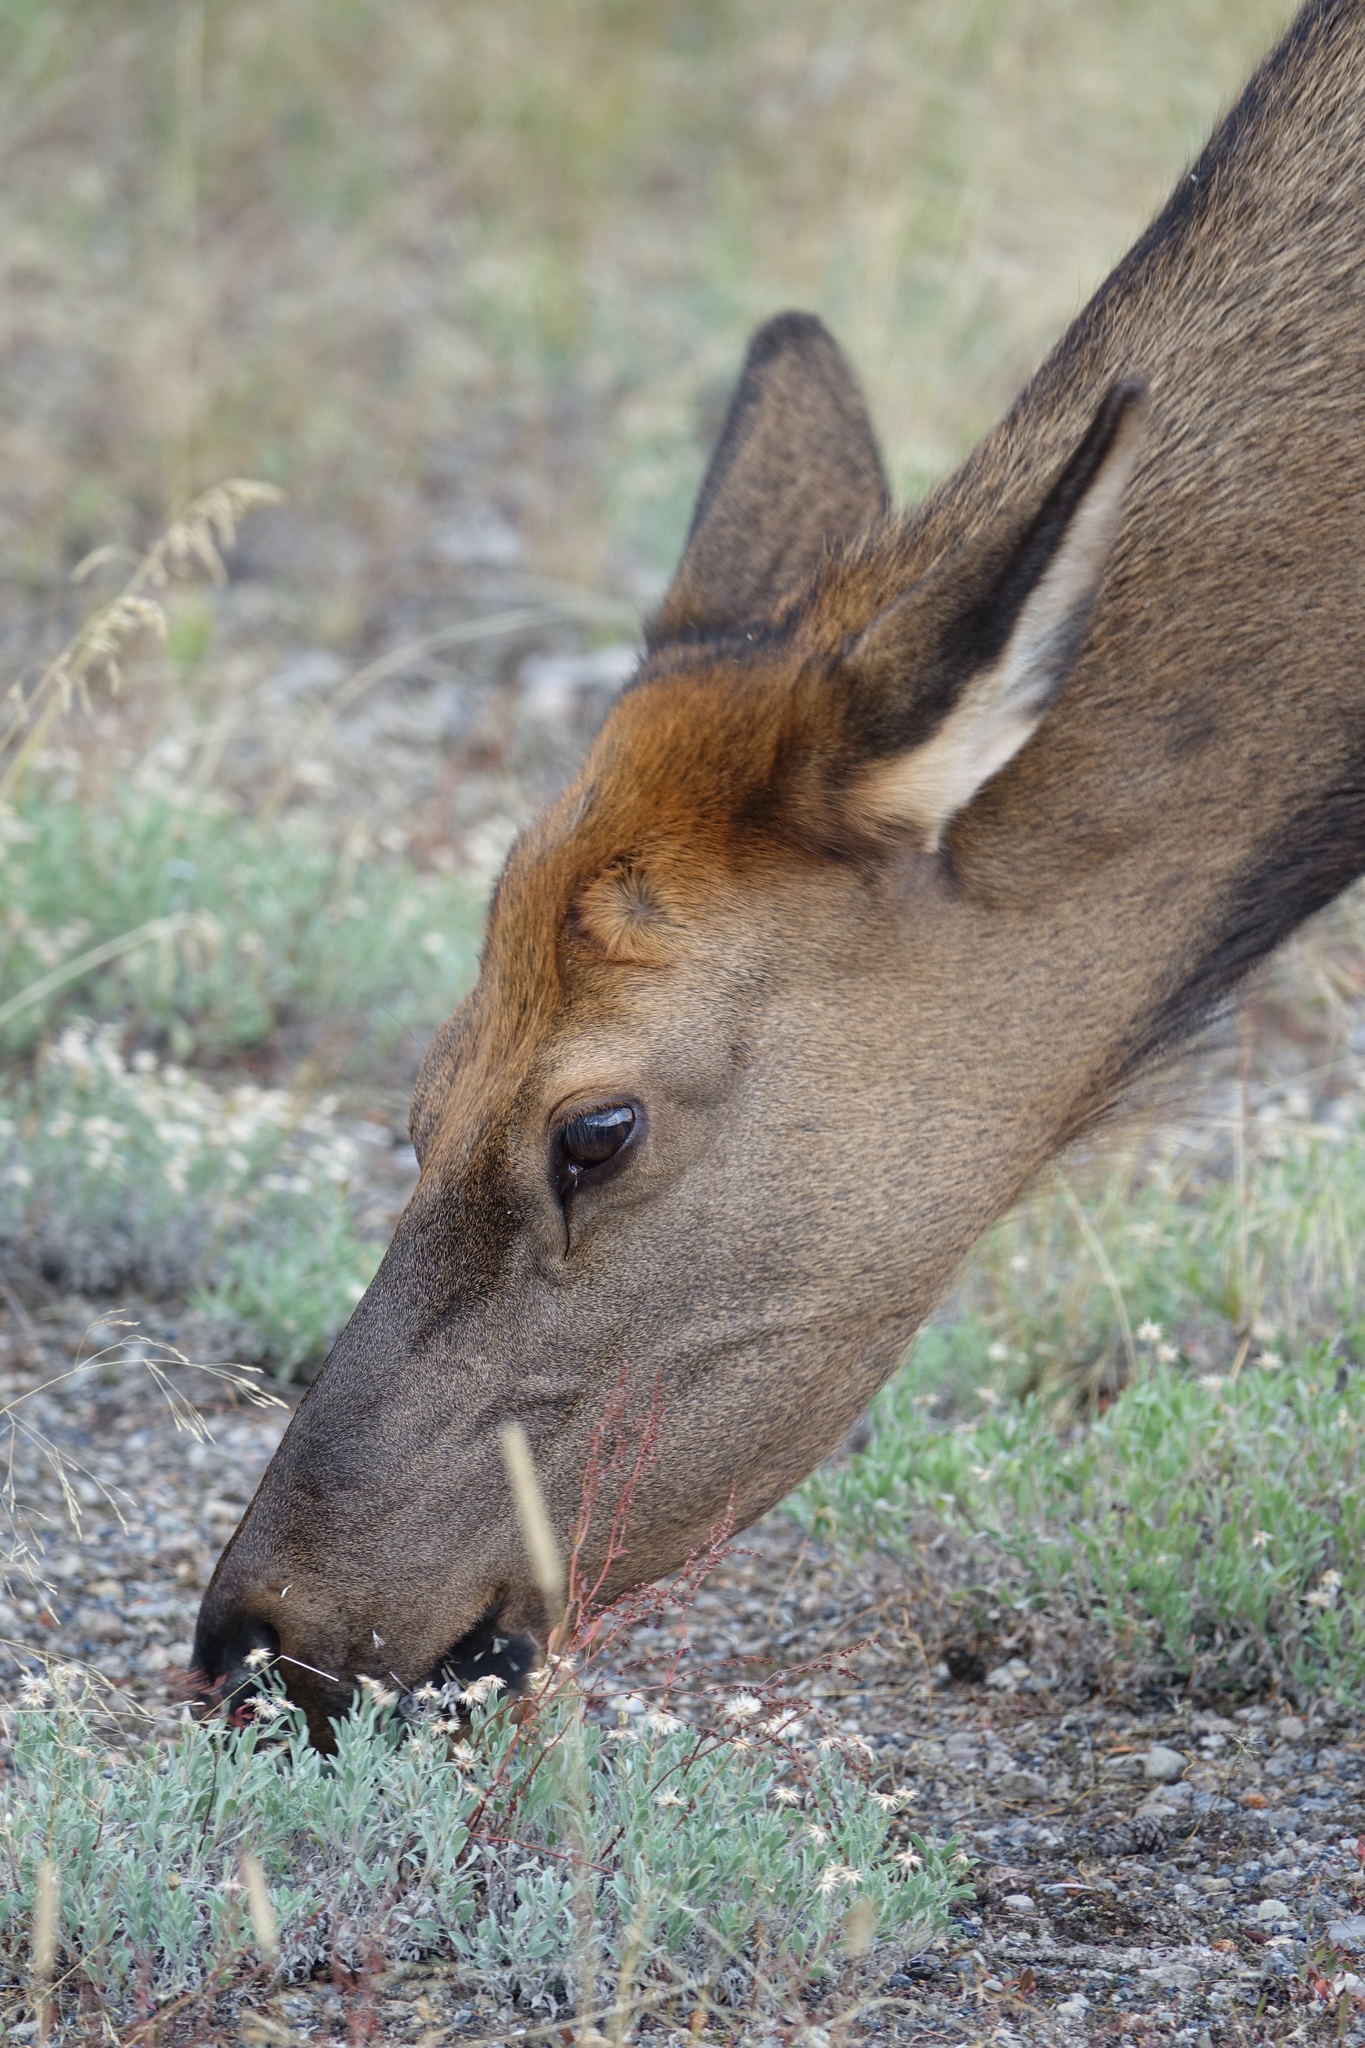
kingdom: Animalia
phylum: Chordata
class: Mammalia
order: Artiodactyla
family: Cervidae
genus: Cervus
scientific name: Cervus elaphus
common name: Red deer
